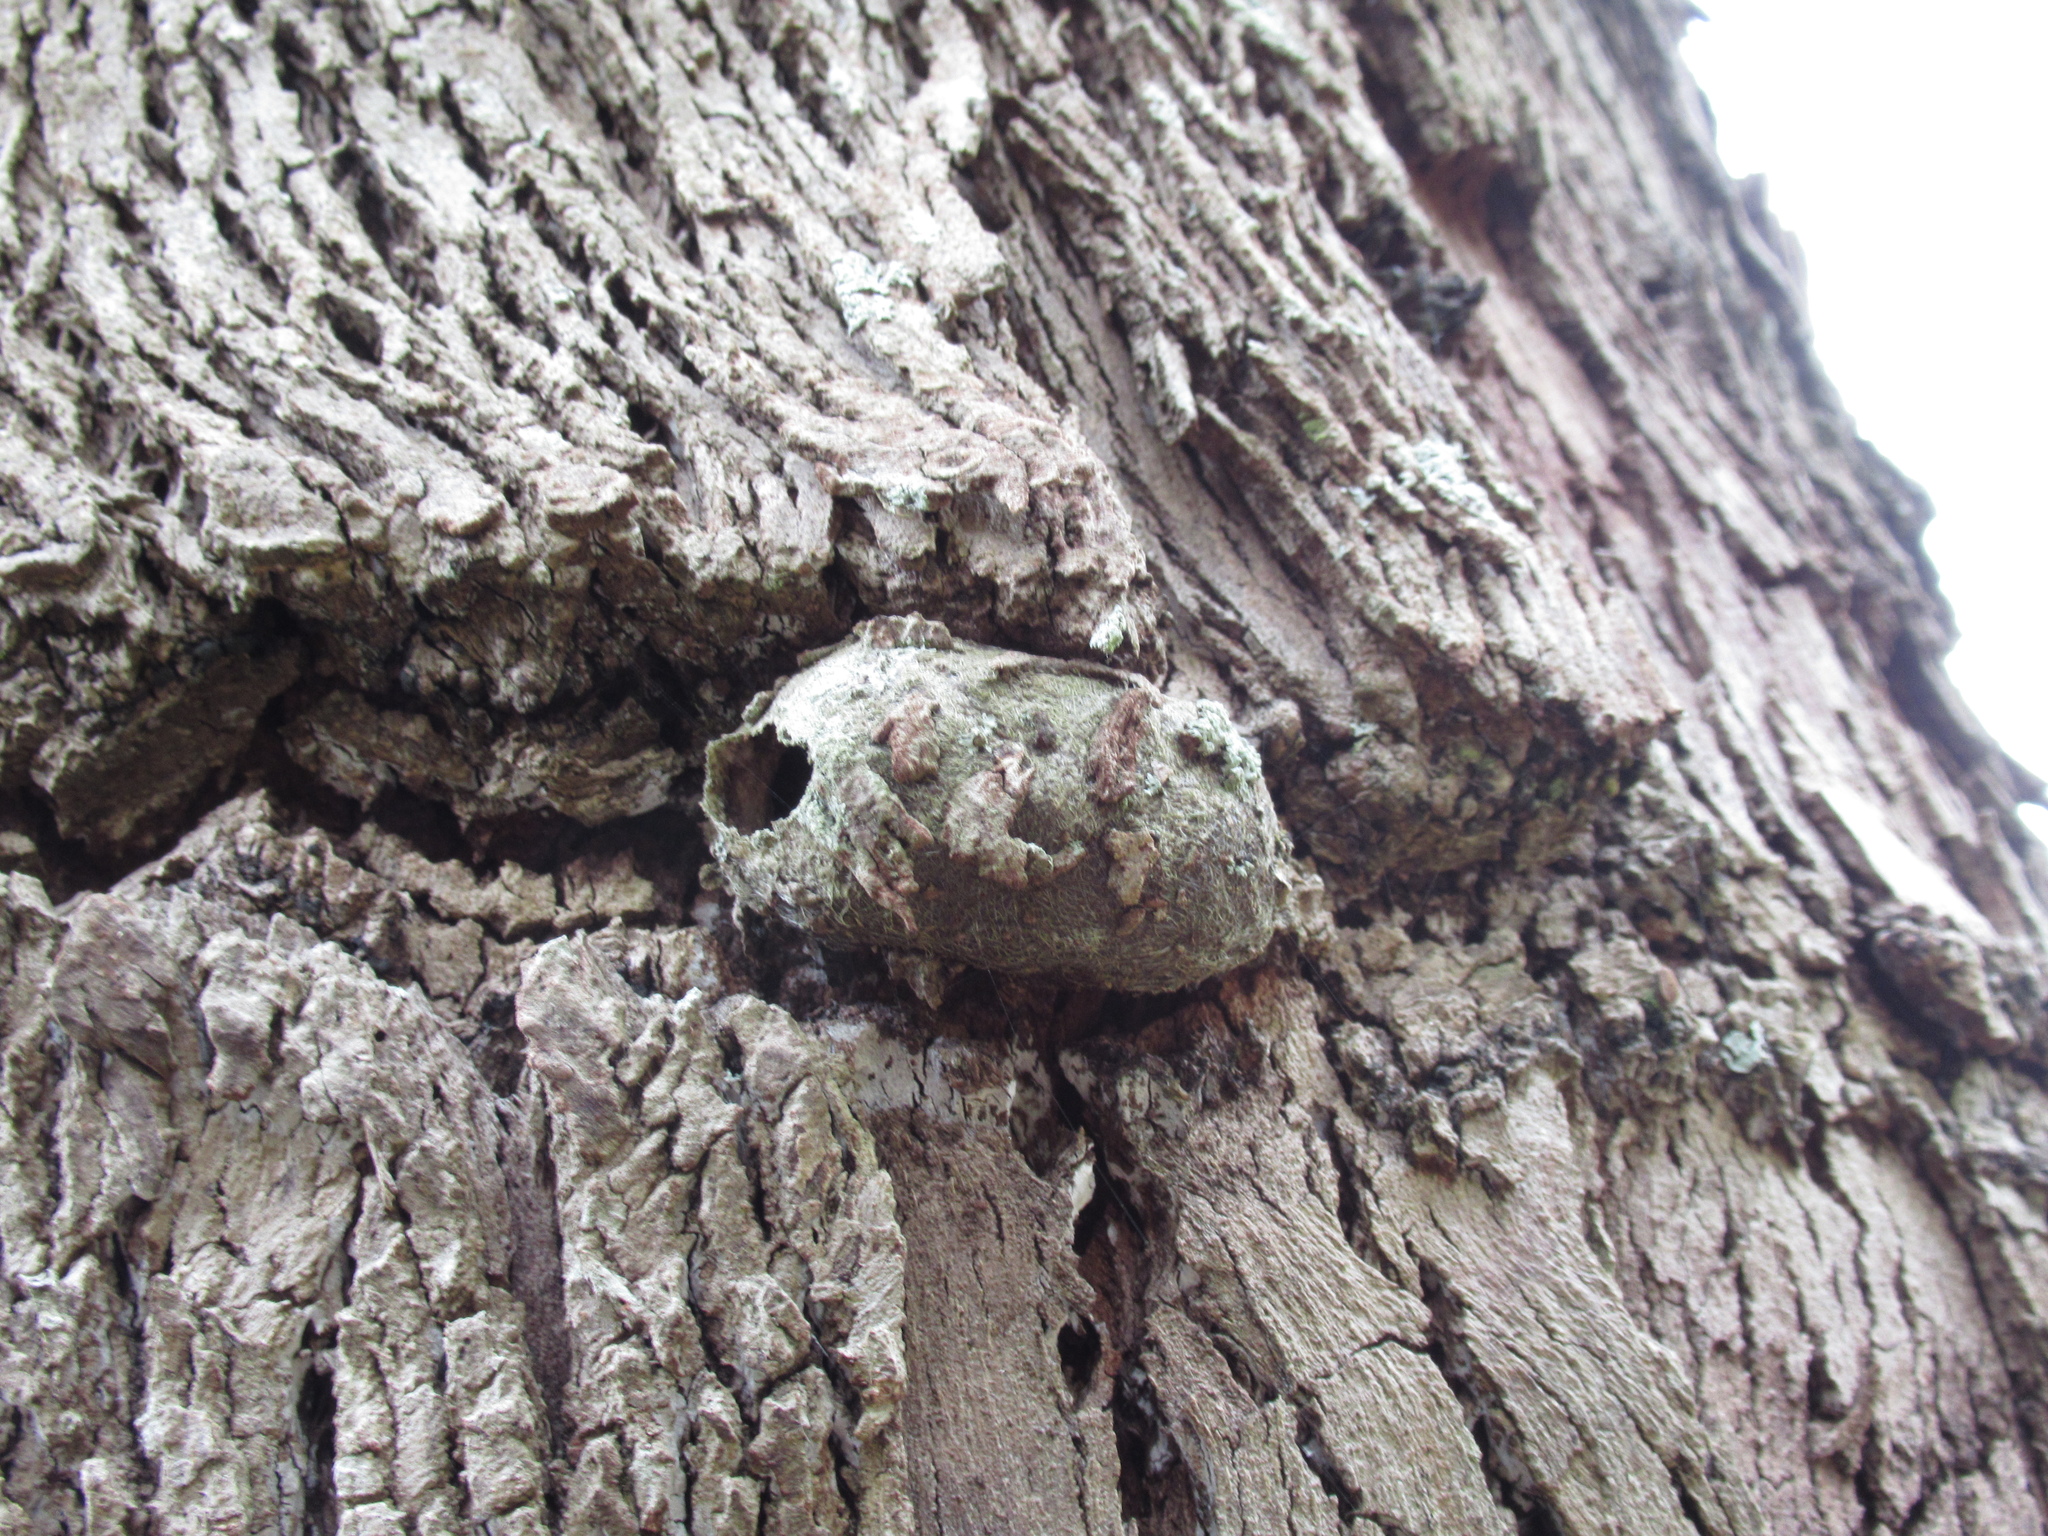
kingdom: Animalia
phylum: Arthropoda
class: Insecta
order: Lepidoptera
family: Saturniidae
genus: Opodiphthera
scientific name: Opodiphthera
